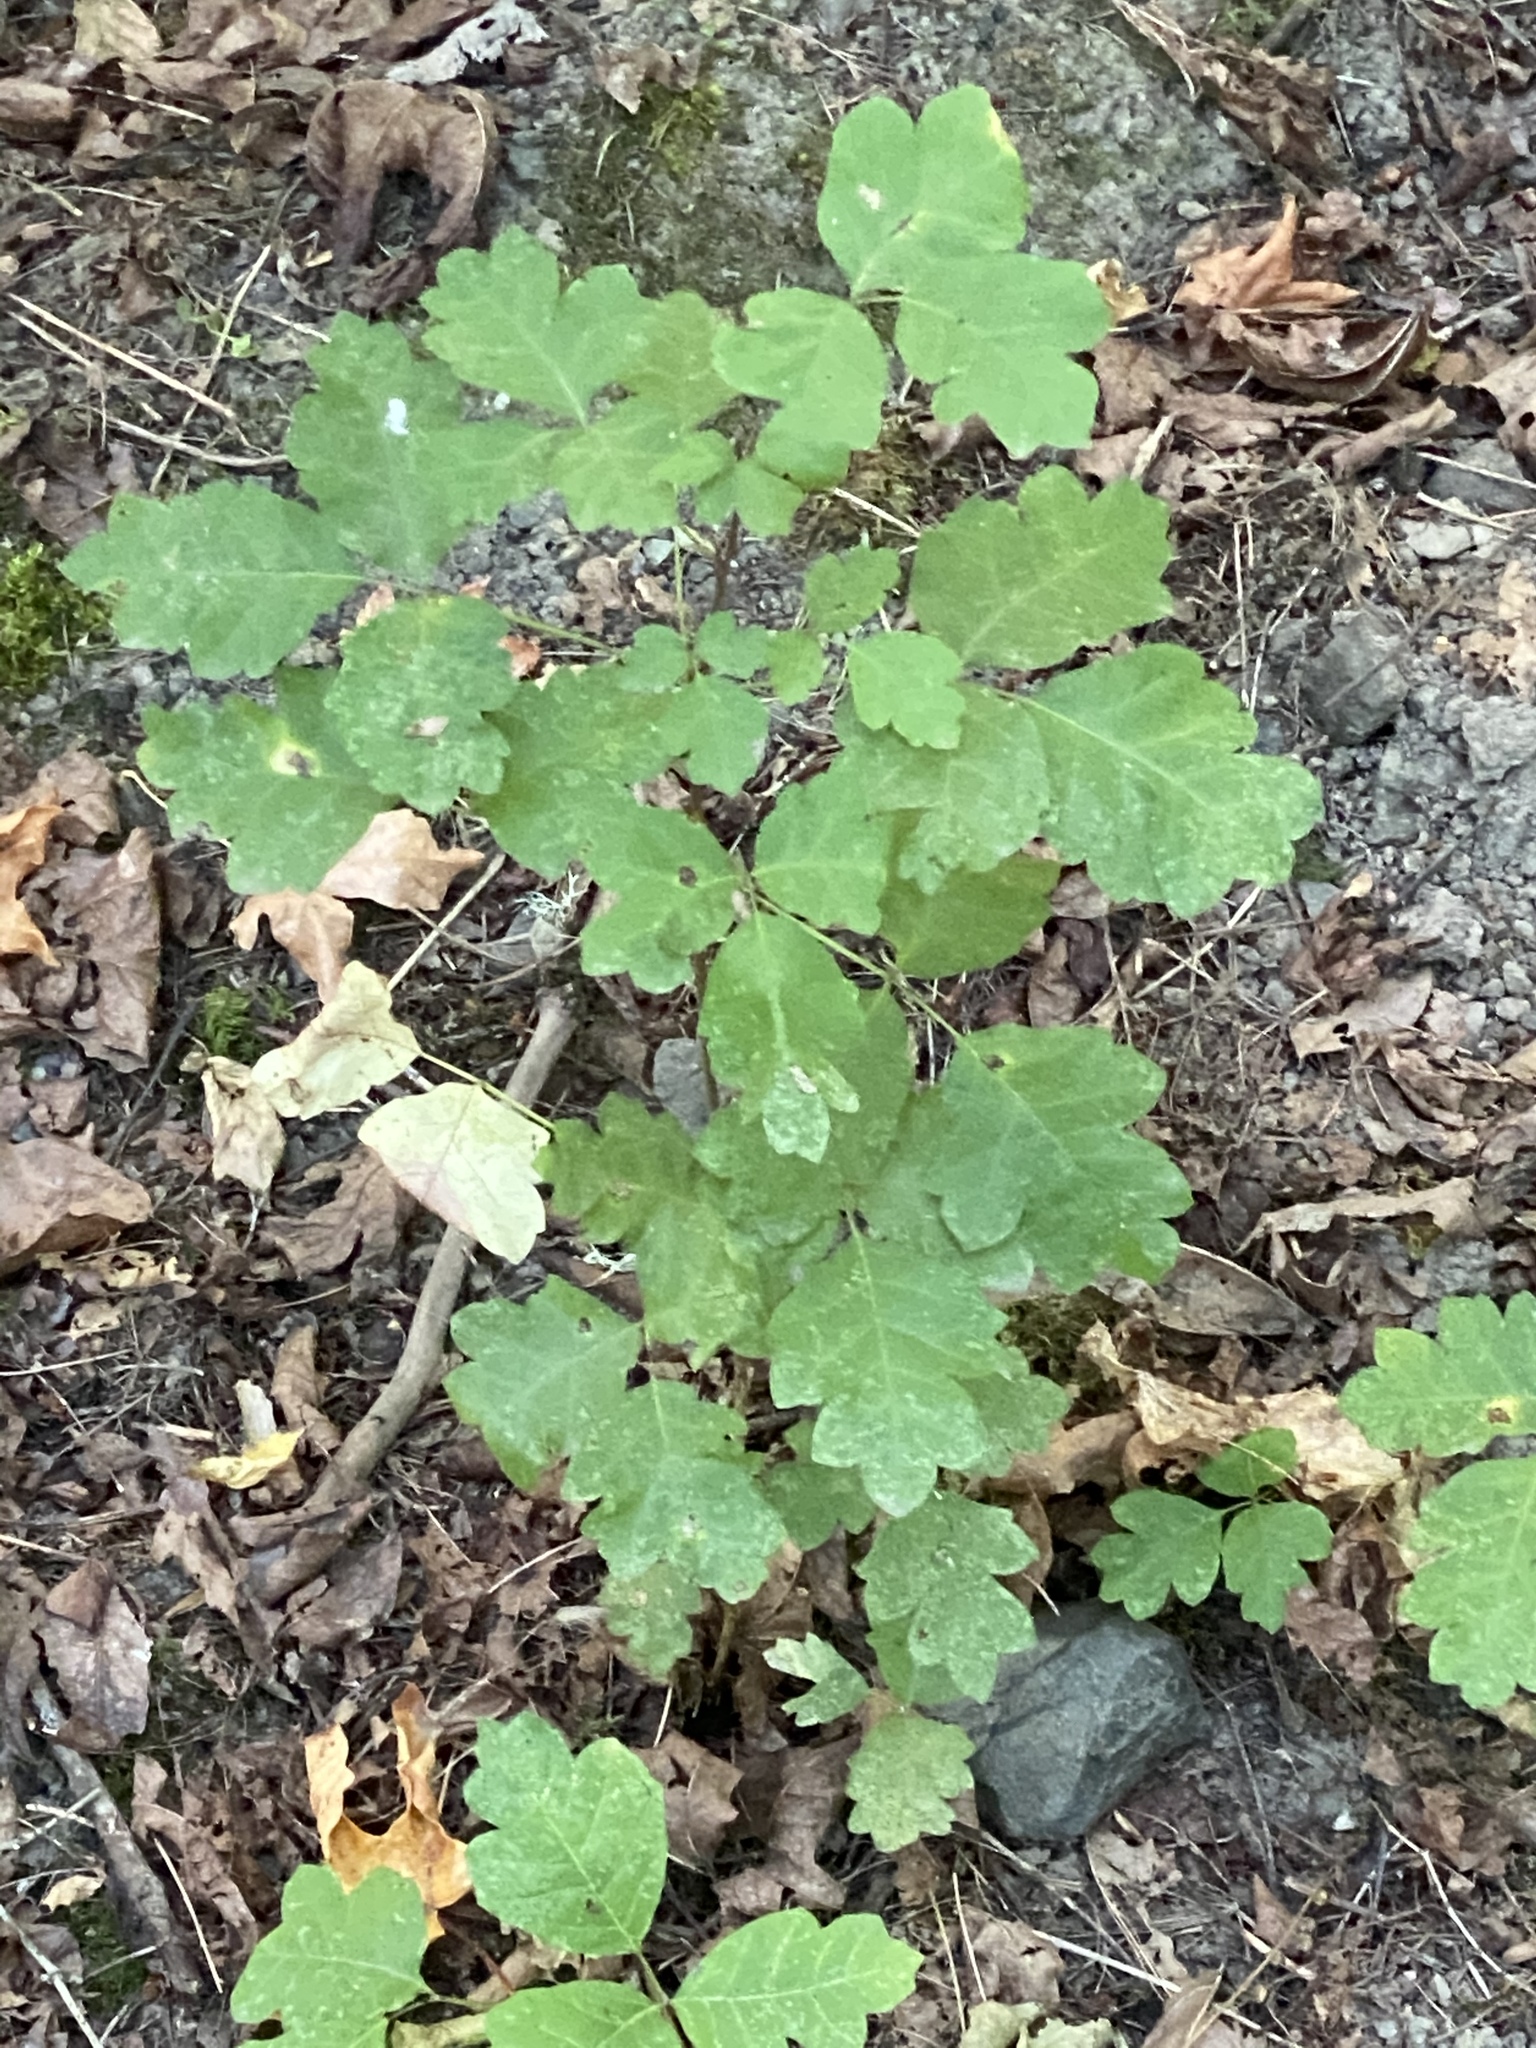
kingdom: Plantae
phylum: Tracheophyta
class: Magnoliopsida
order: Sapindales
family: Anacardiaceae
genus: Toxicodendron
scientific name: Toxicodendron diversilobum
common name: Pacific poison-oak
